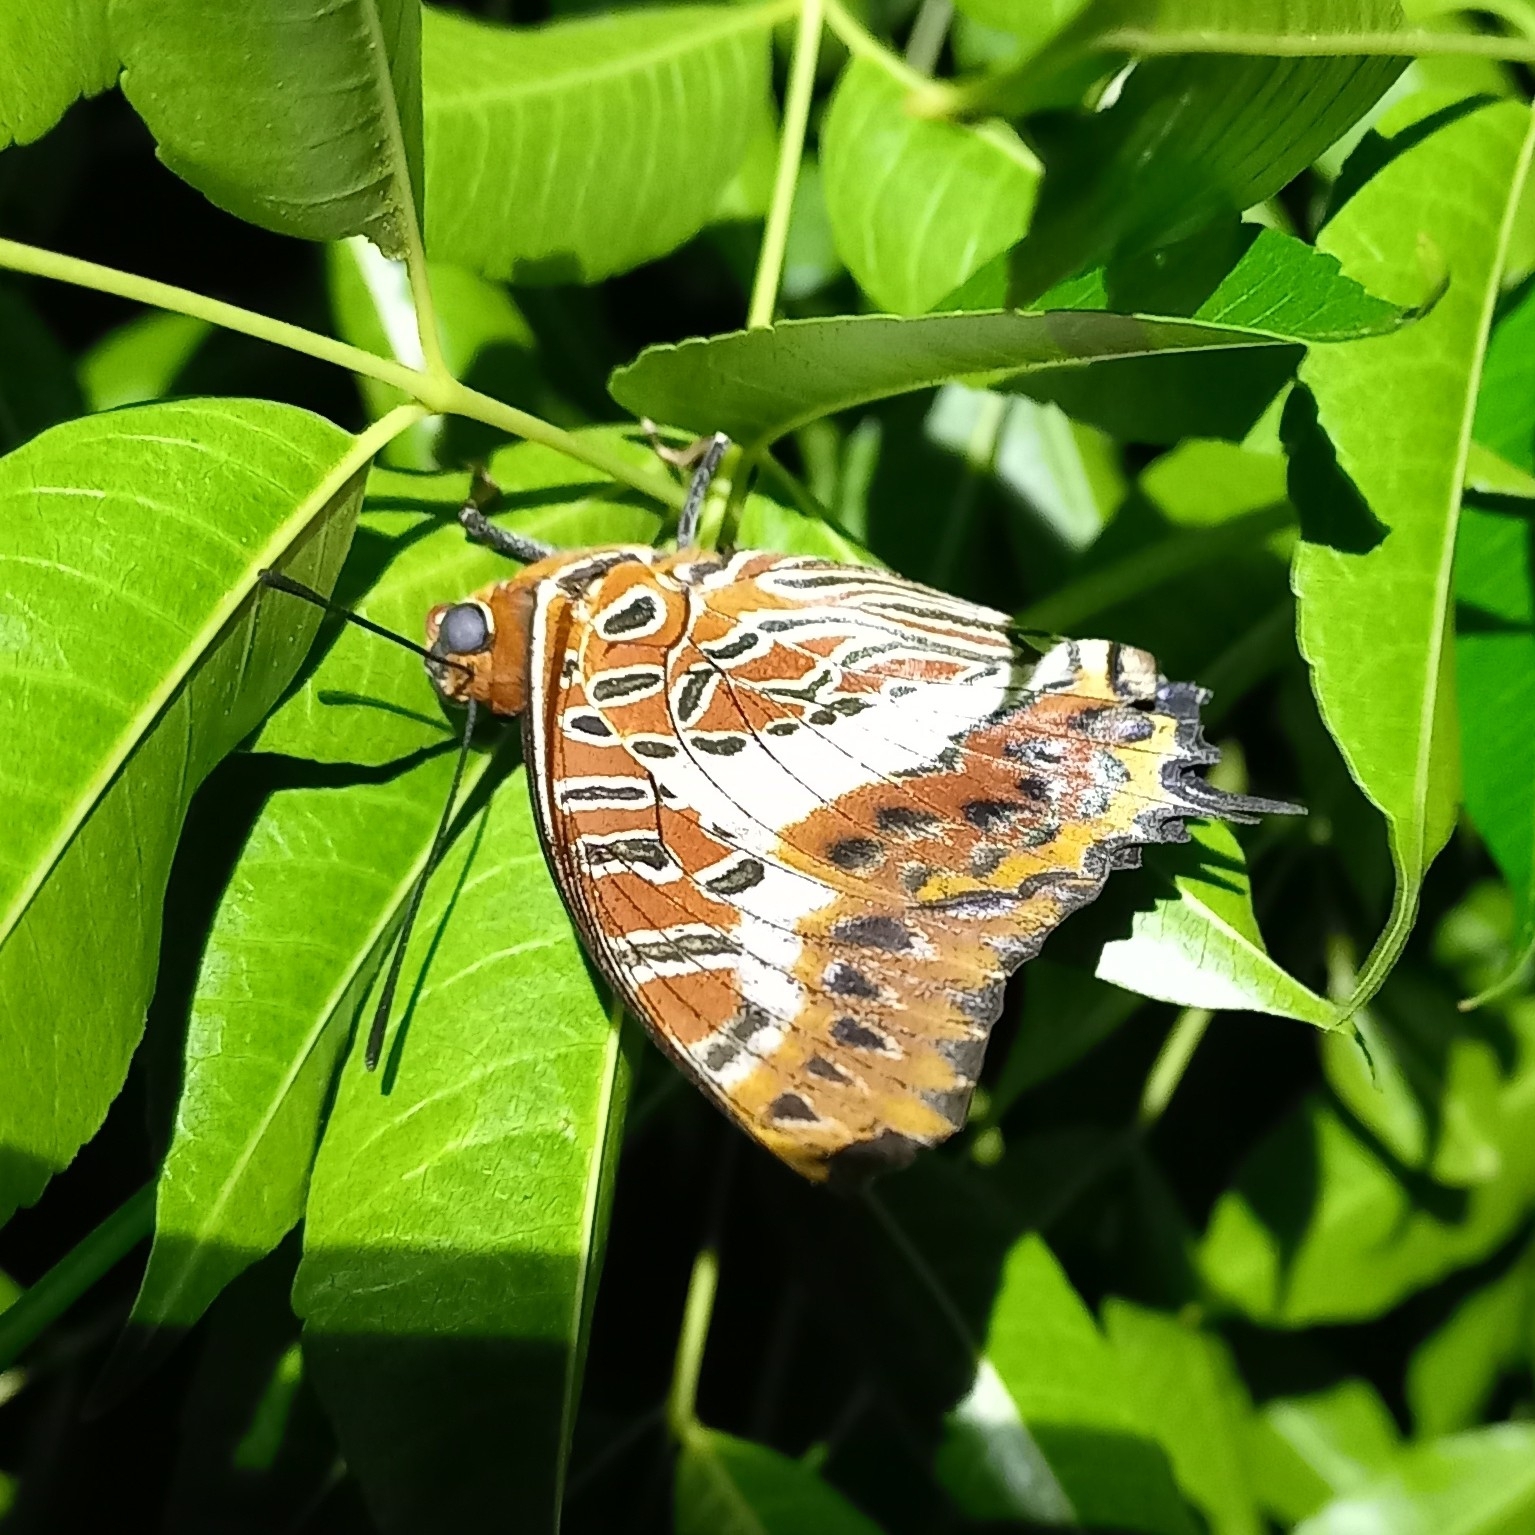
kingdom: Animalia
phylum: Arthropoda
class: Insecta
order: Lepidoptera
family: Nymphalidae
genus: Charaxes
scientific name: Charaxes brutus
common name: White-barred charaxes
